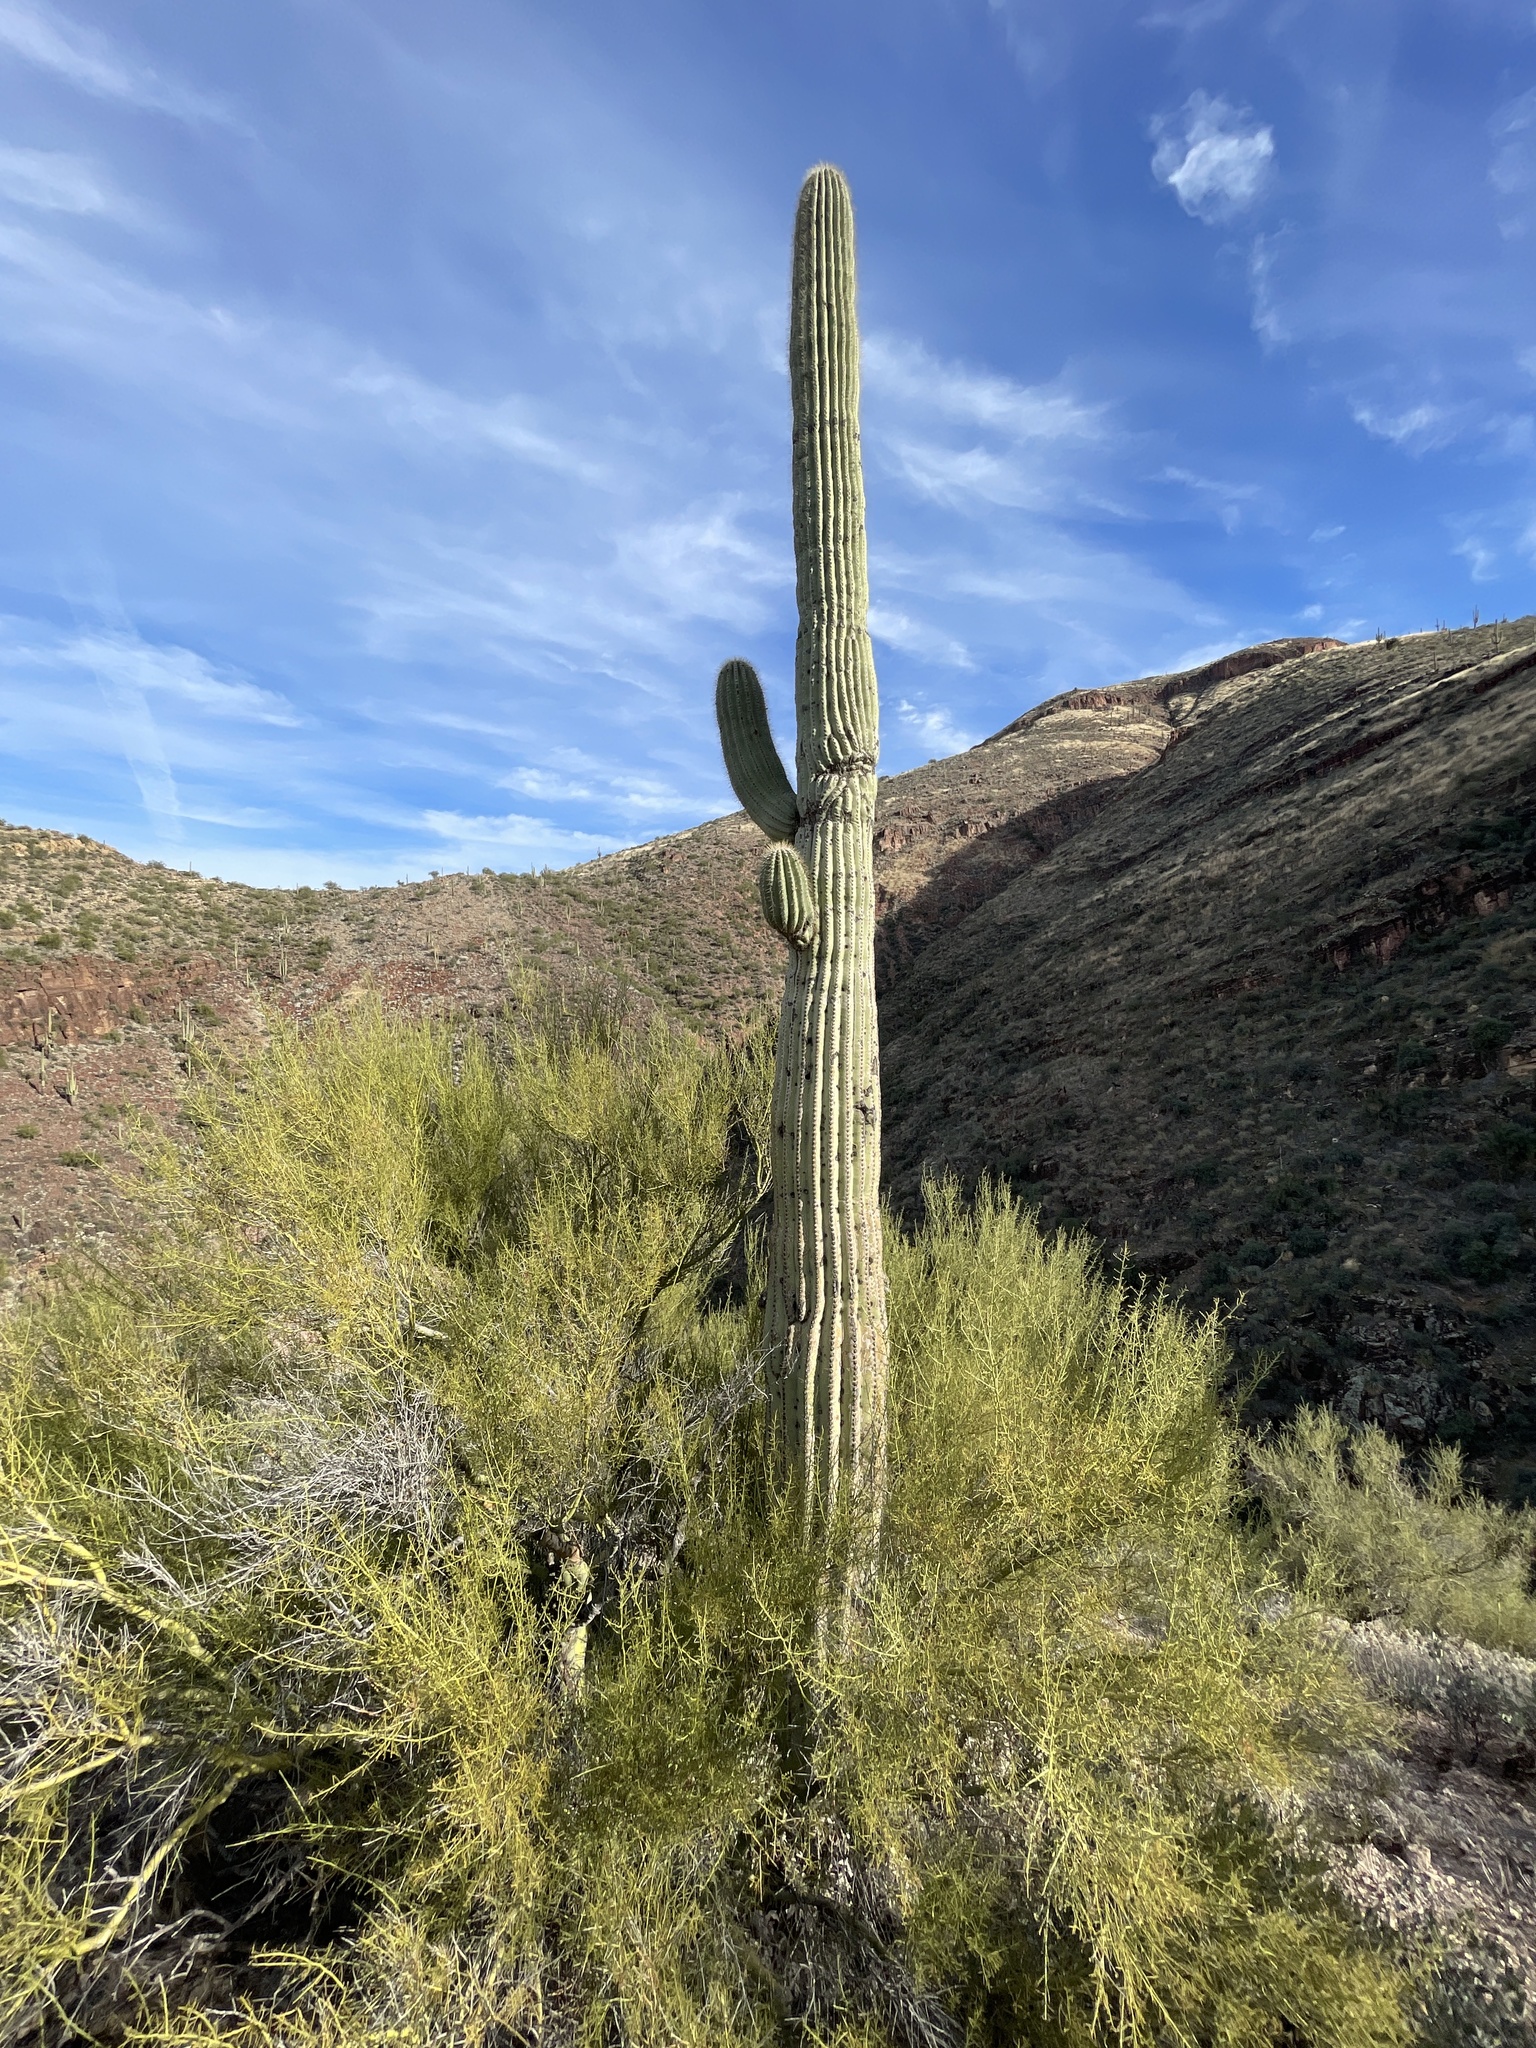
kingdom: Plantae
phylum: Tracheophyta
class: Magnoliopsida
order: Caryophyllales
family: Cactaceae
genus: Carnegiea
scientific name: Carnegiea gigantea
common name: Saguaro
